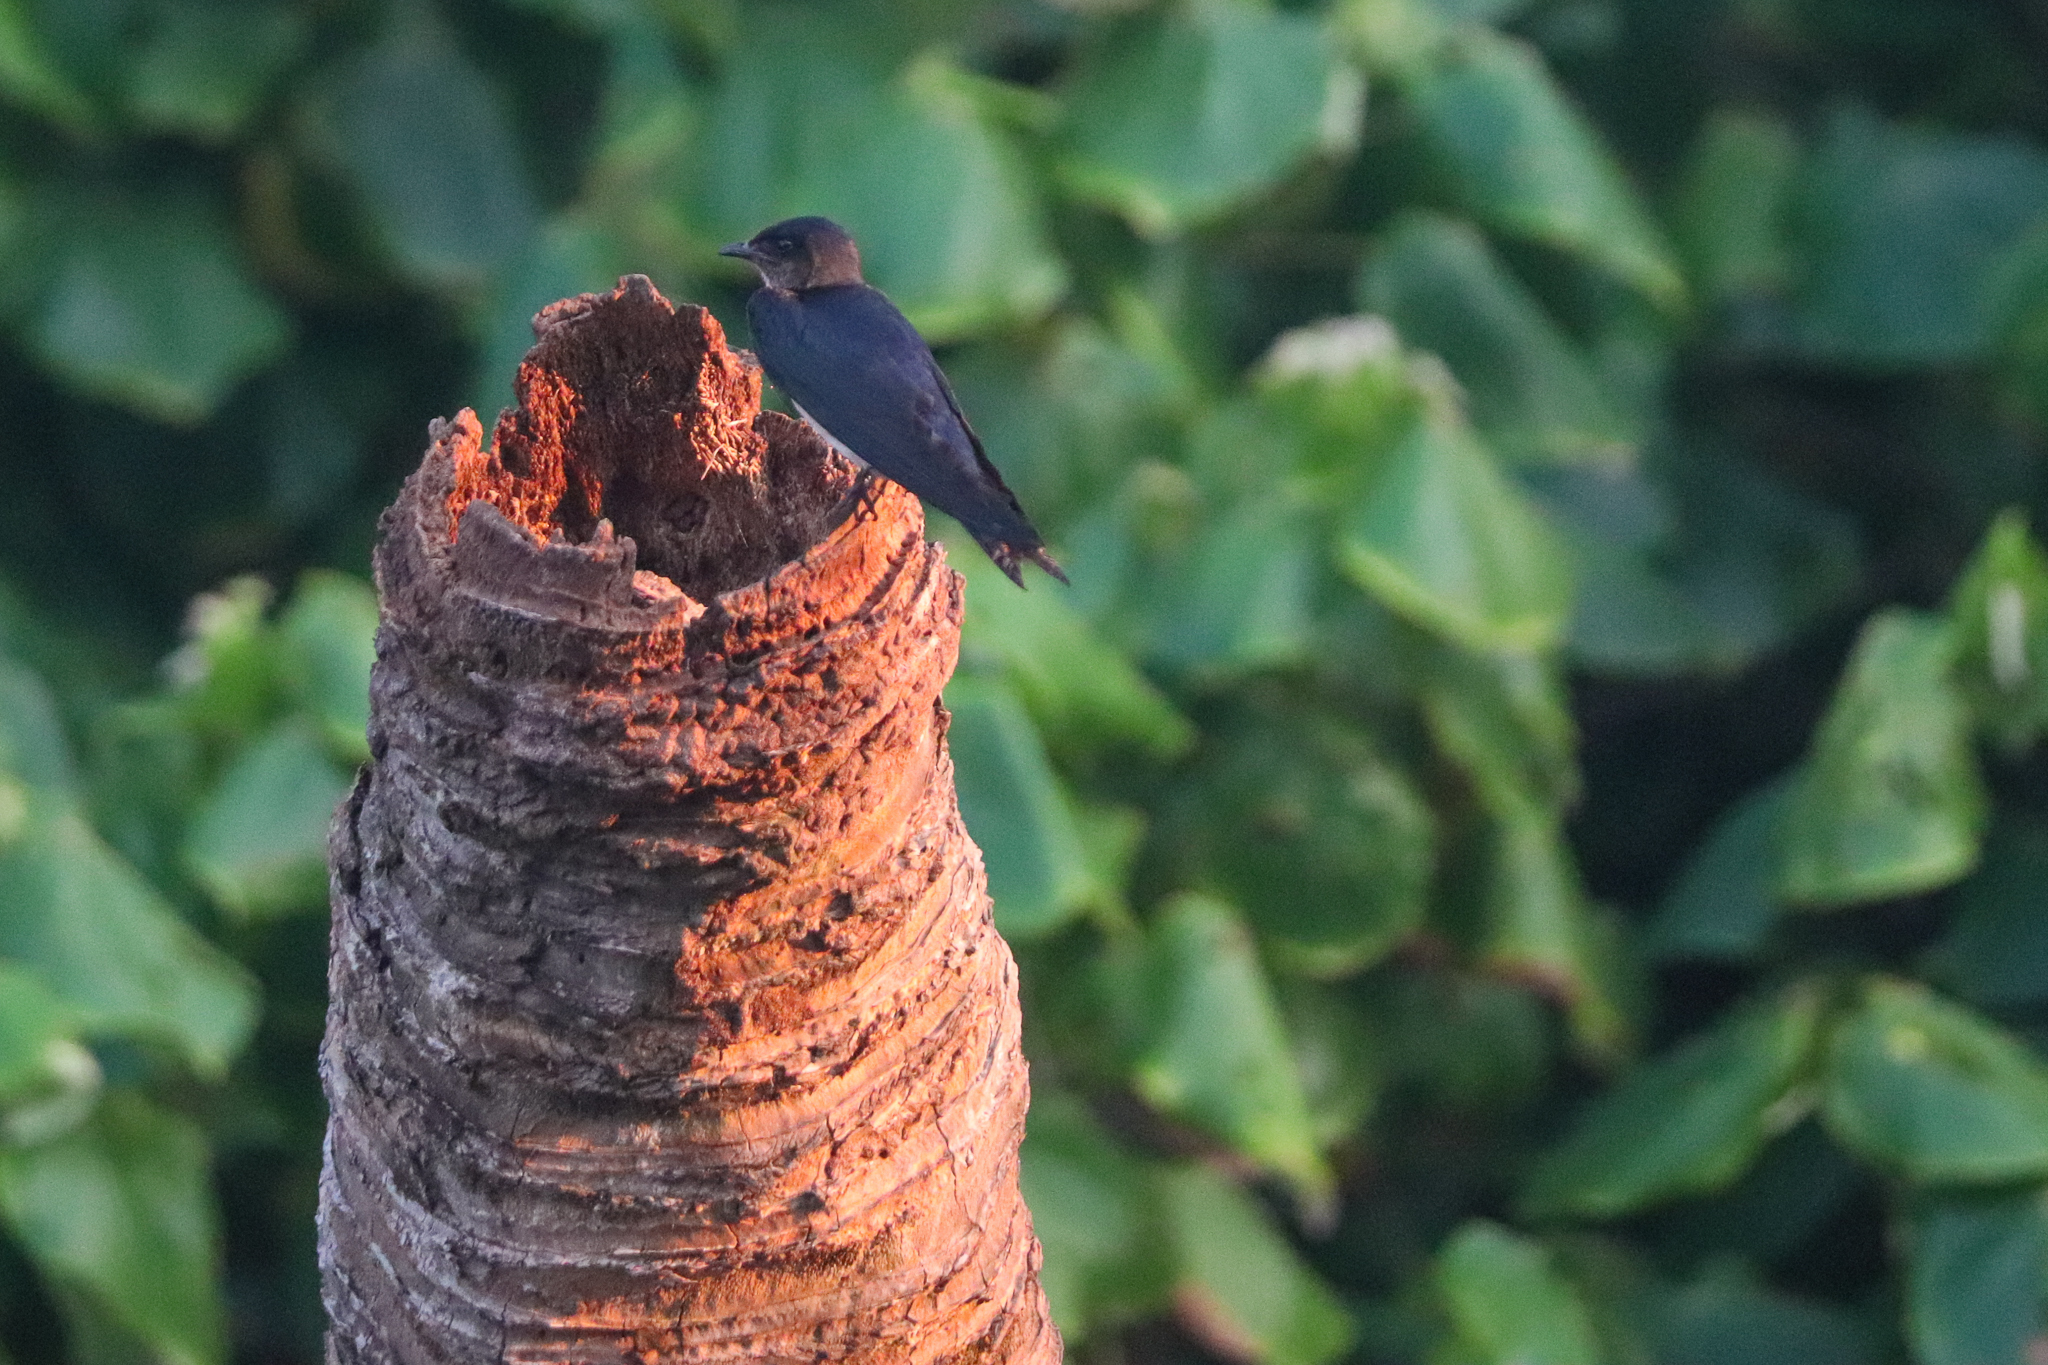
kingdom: Animalia
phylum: Chordata
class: Aves
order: Passeriformes
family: Hirundinidae
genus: Progne
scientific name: Progne chalybea
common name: Grey-breasted martin
